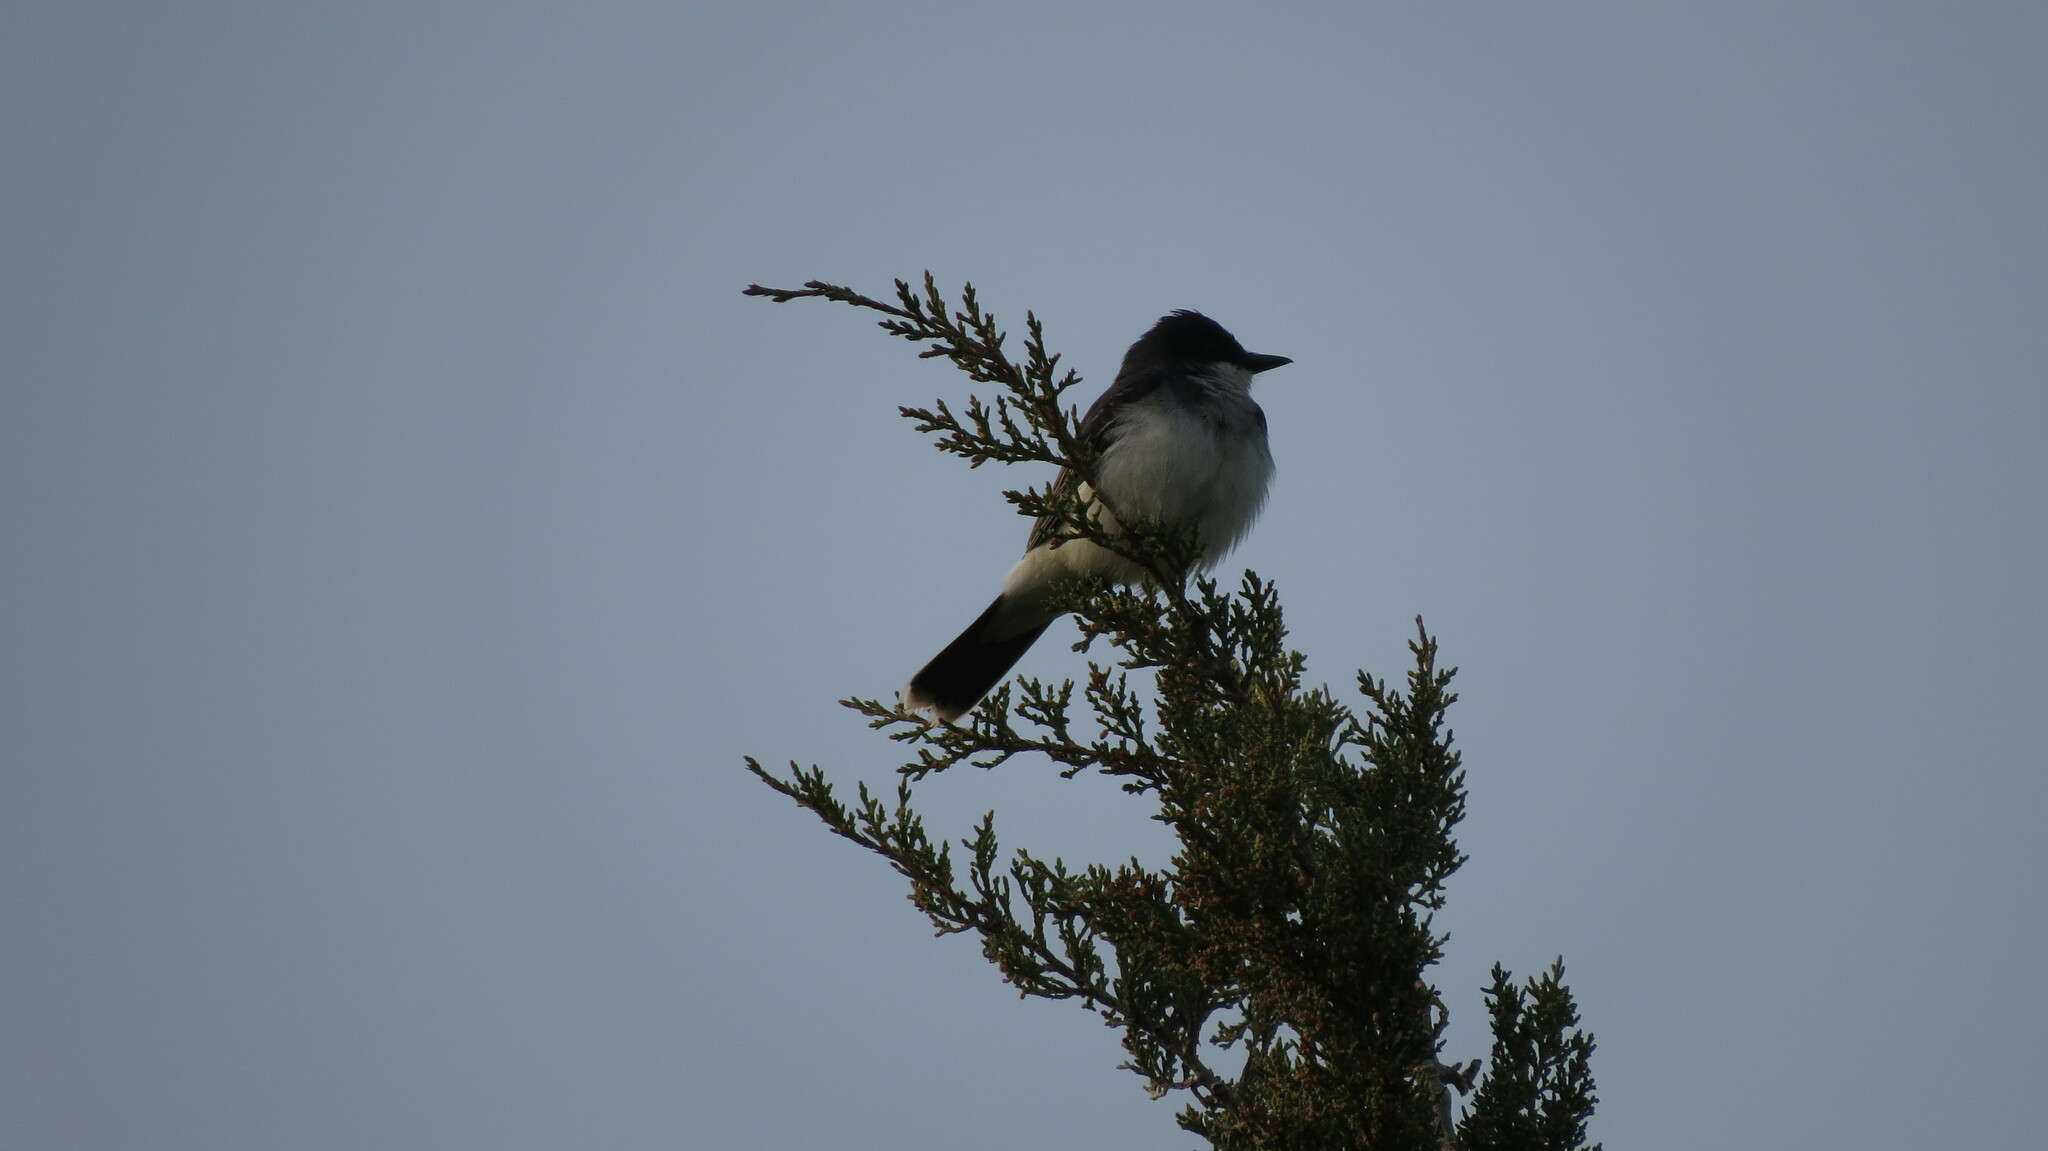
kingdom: Animalia
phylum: Chordata
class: Aves
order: Passeriformes
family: Tyrannidae
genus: Tyrannus
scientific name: Tyrannus tyrannus
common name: Eastern kingbird
